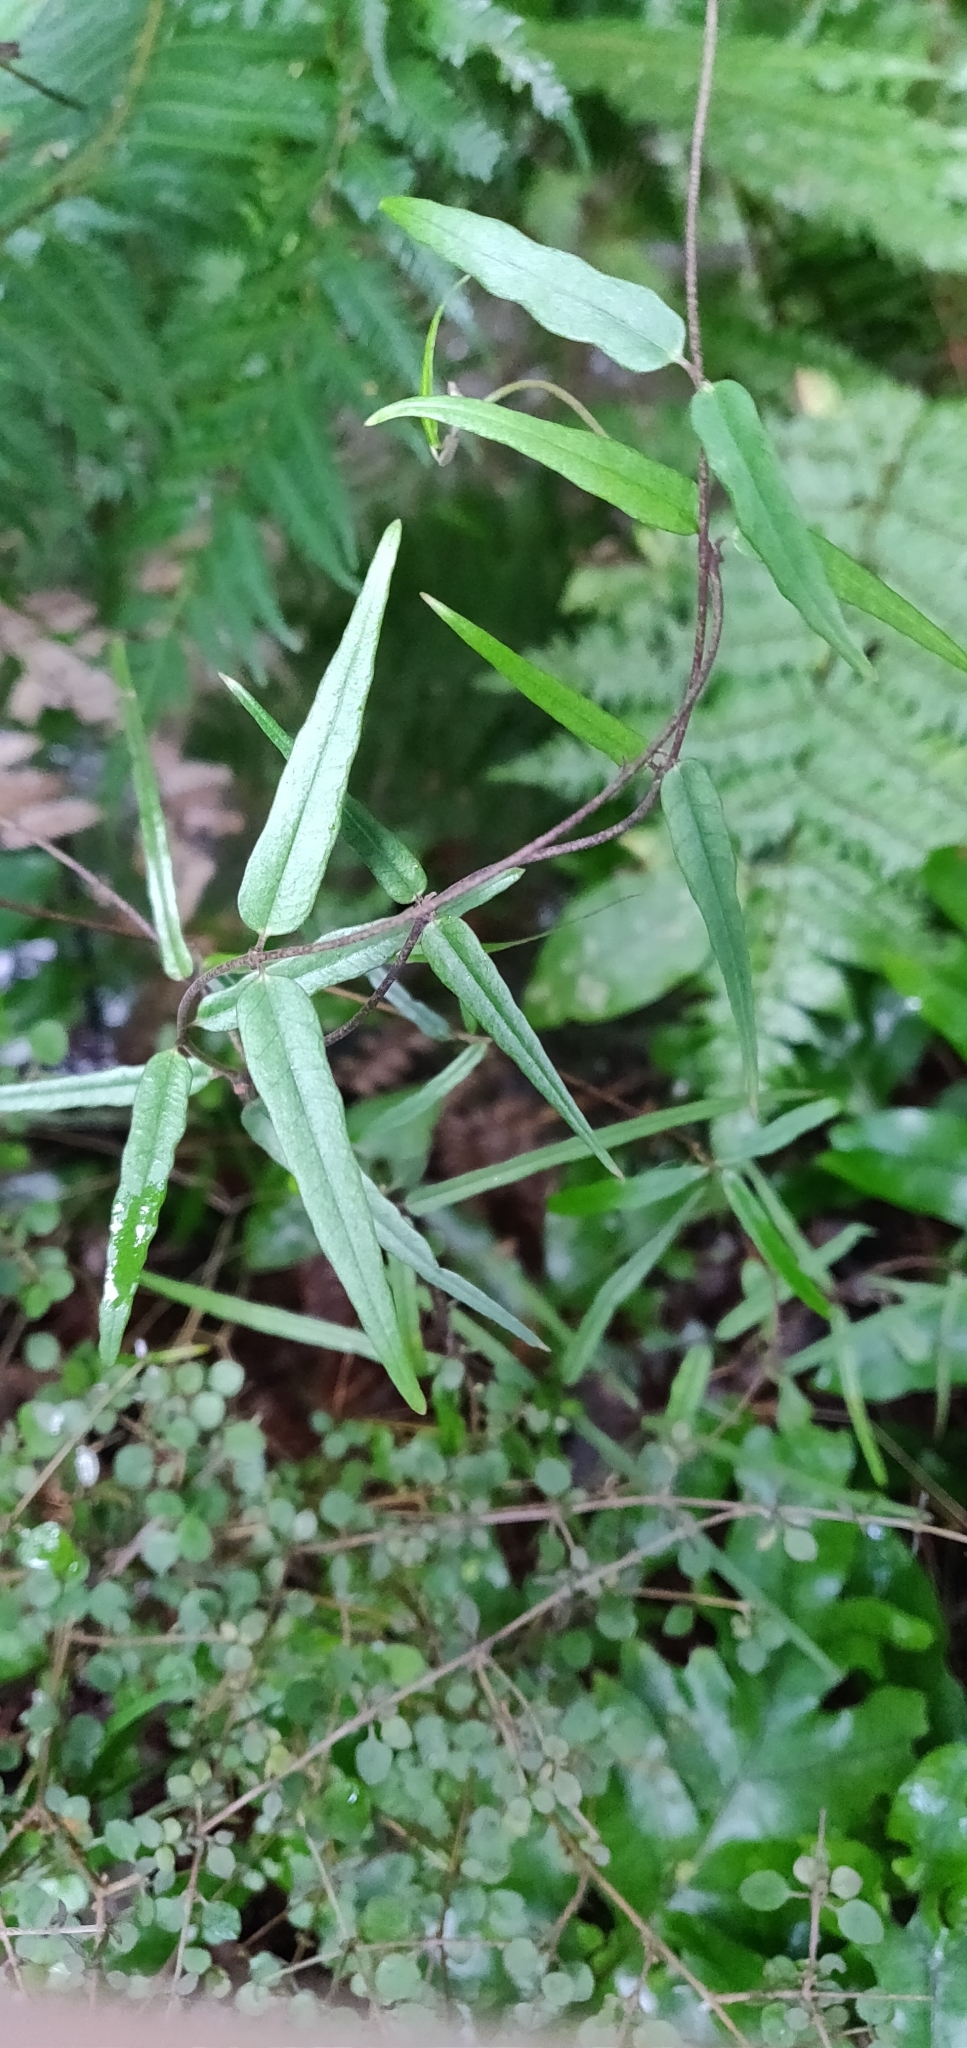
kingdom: Plantae
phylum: Tracheophyta
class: Magnoliopsida
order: Gentianales
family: Apocynaceae
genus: Parsonsia
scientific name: Parsonsia heterophylla
